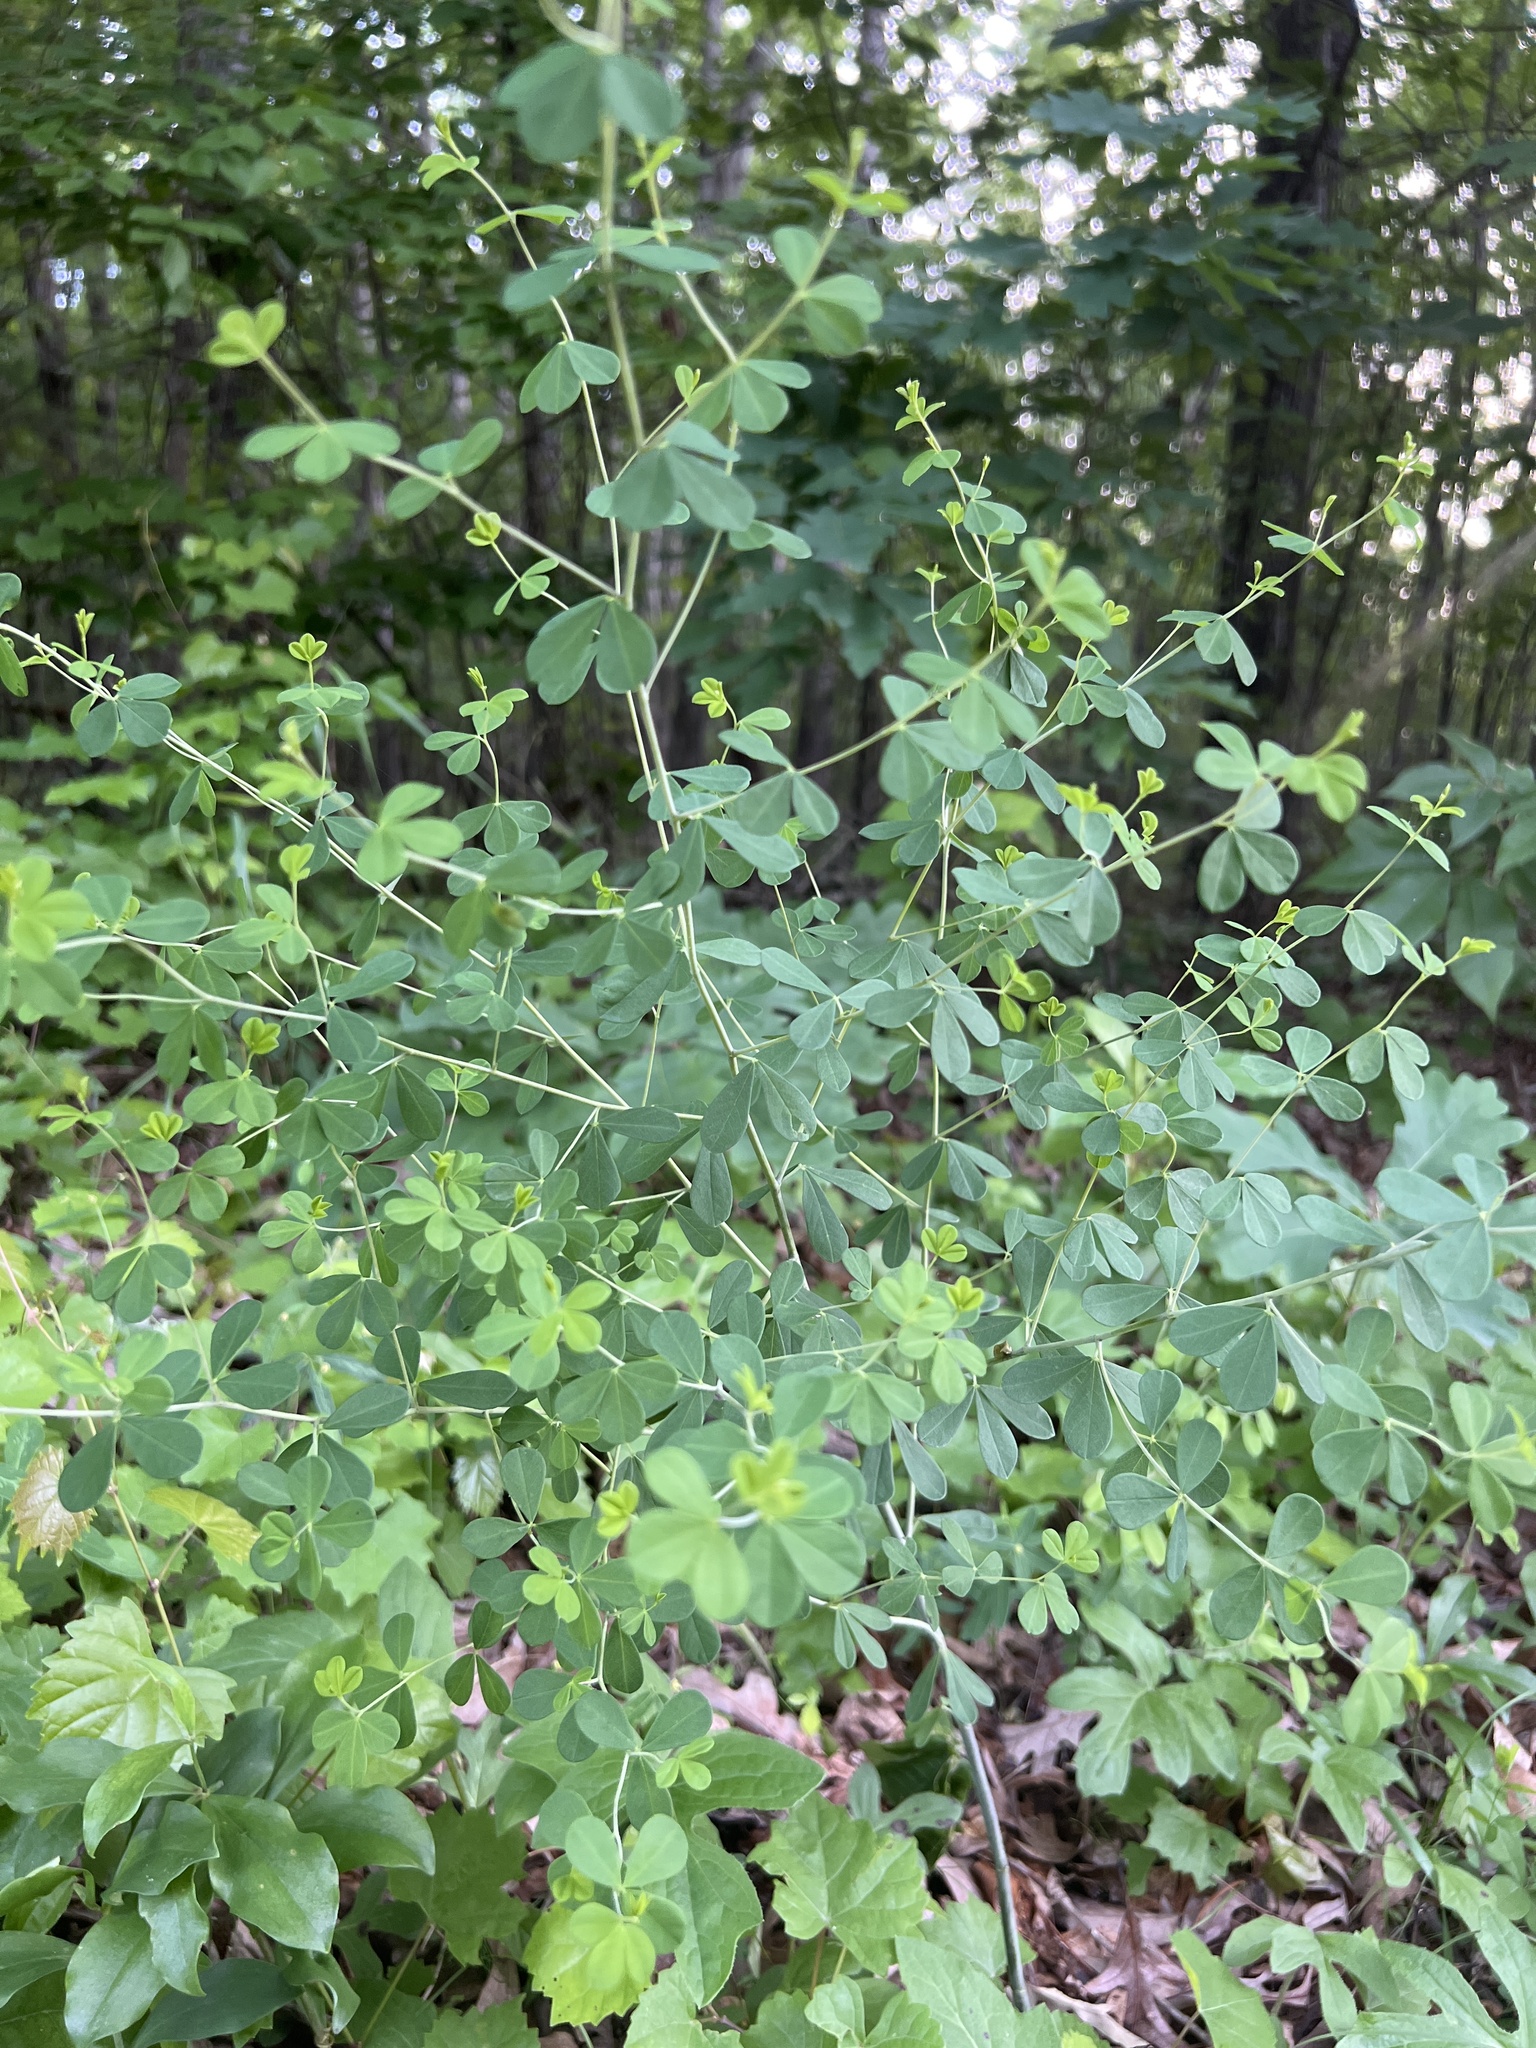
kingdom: Plantae
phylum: Tracheophyta
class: Magnoliopsida
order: Fabales
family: Fabaceae
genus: Baptisia
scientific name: Baptisia tinctoria
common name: Wild indigo
